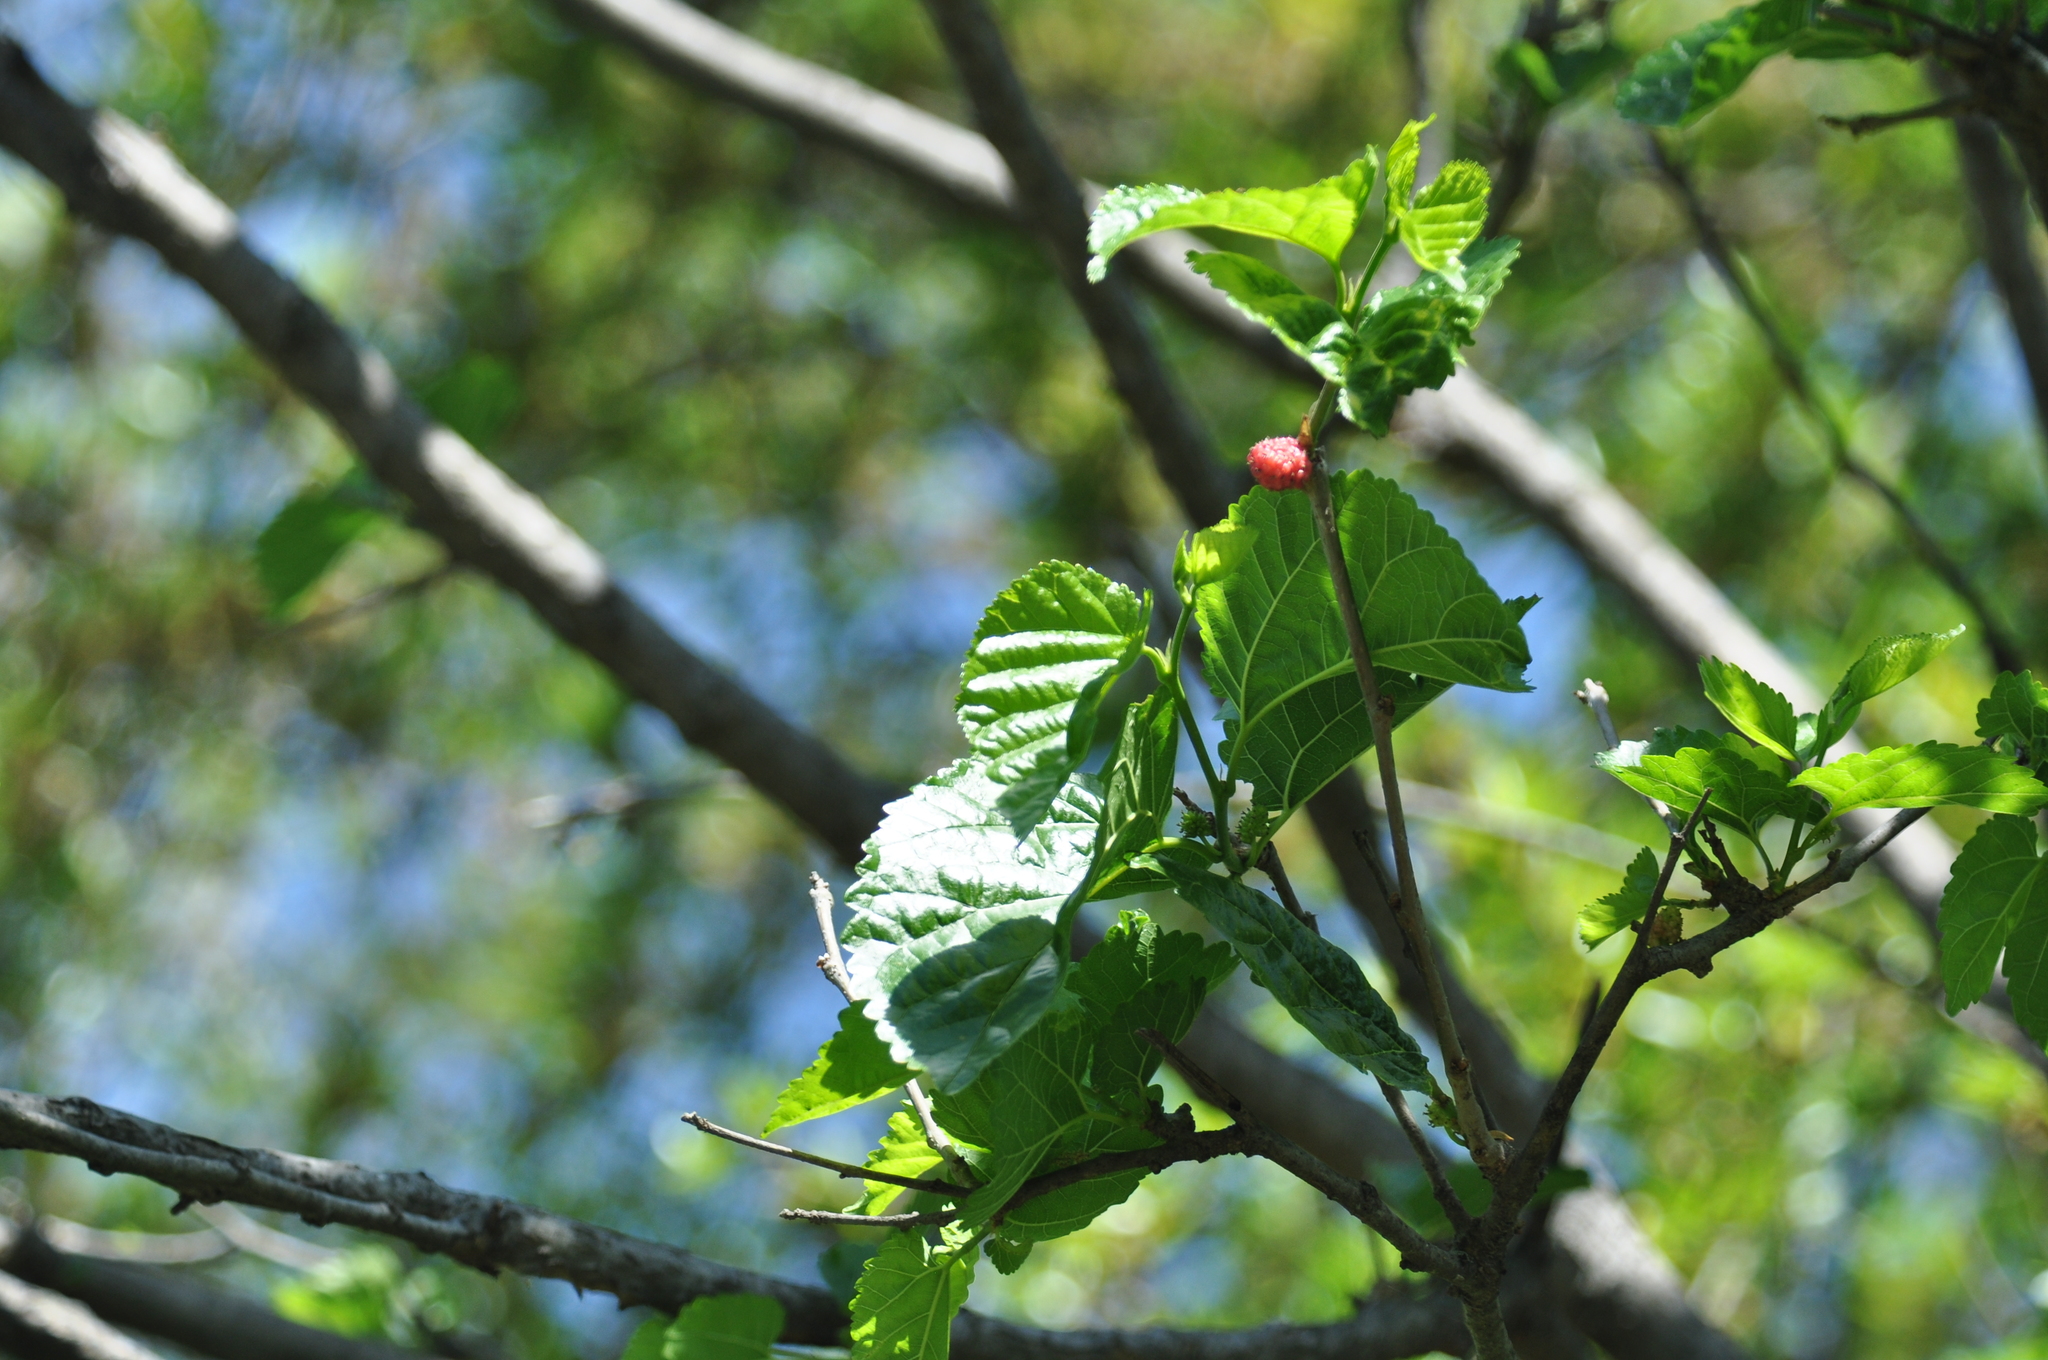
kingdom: Plantae
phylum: Tracheophyta
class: Magnoliopsida
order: Rosales
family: Moraceae
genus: Morus
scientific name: Morus rubra
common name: Red mulberry
